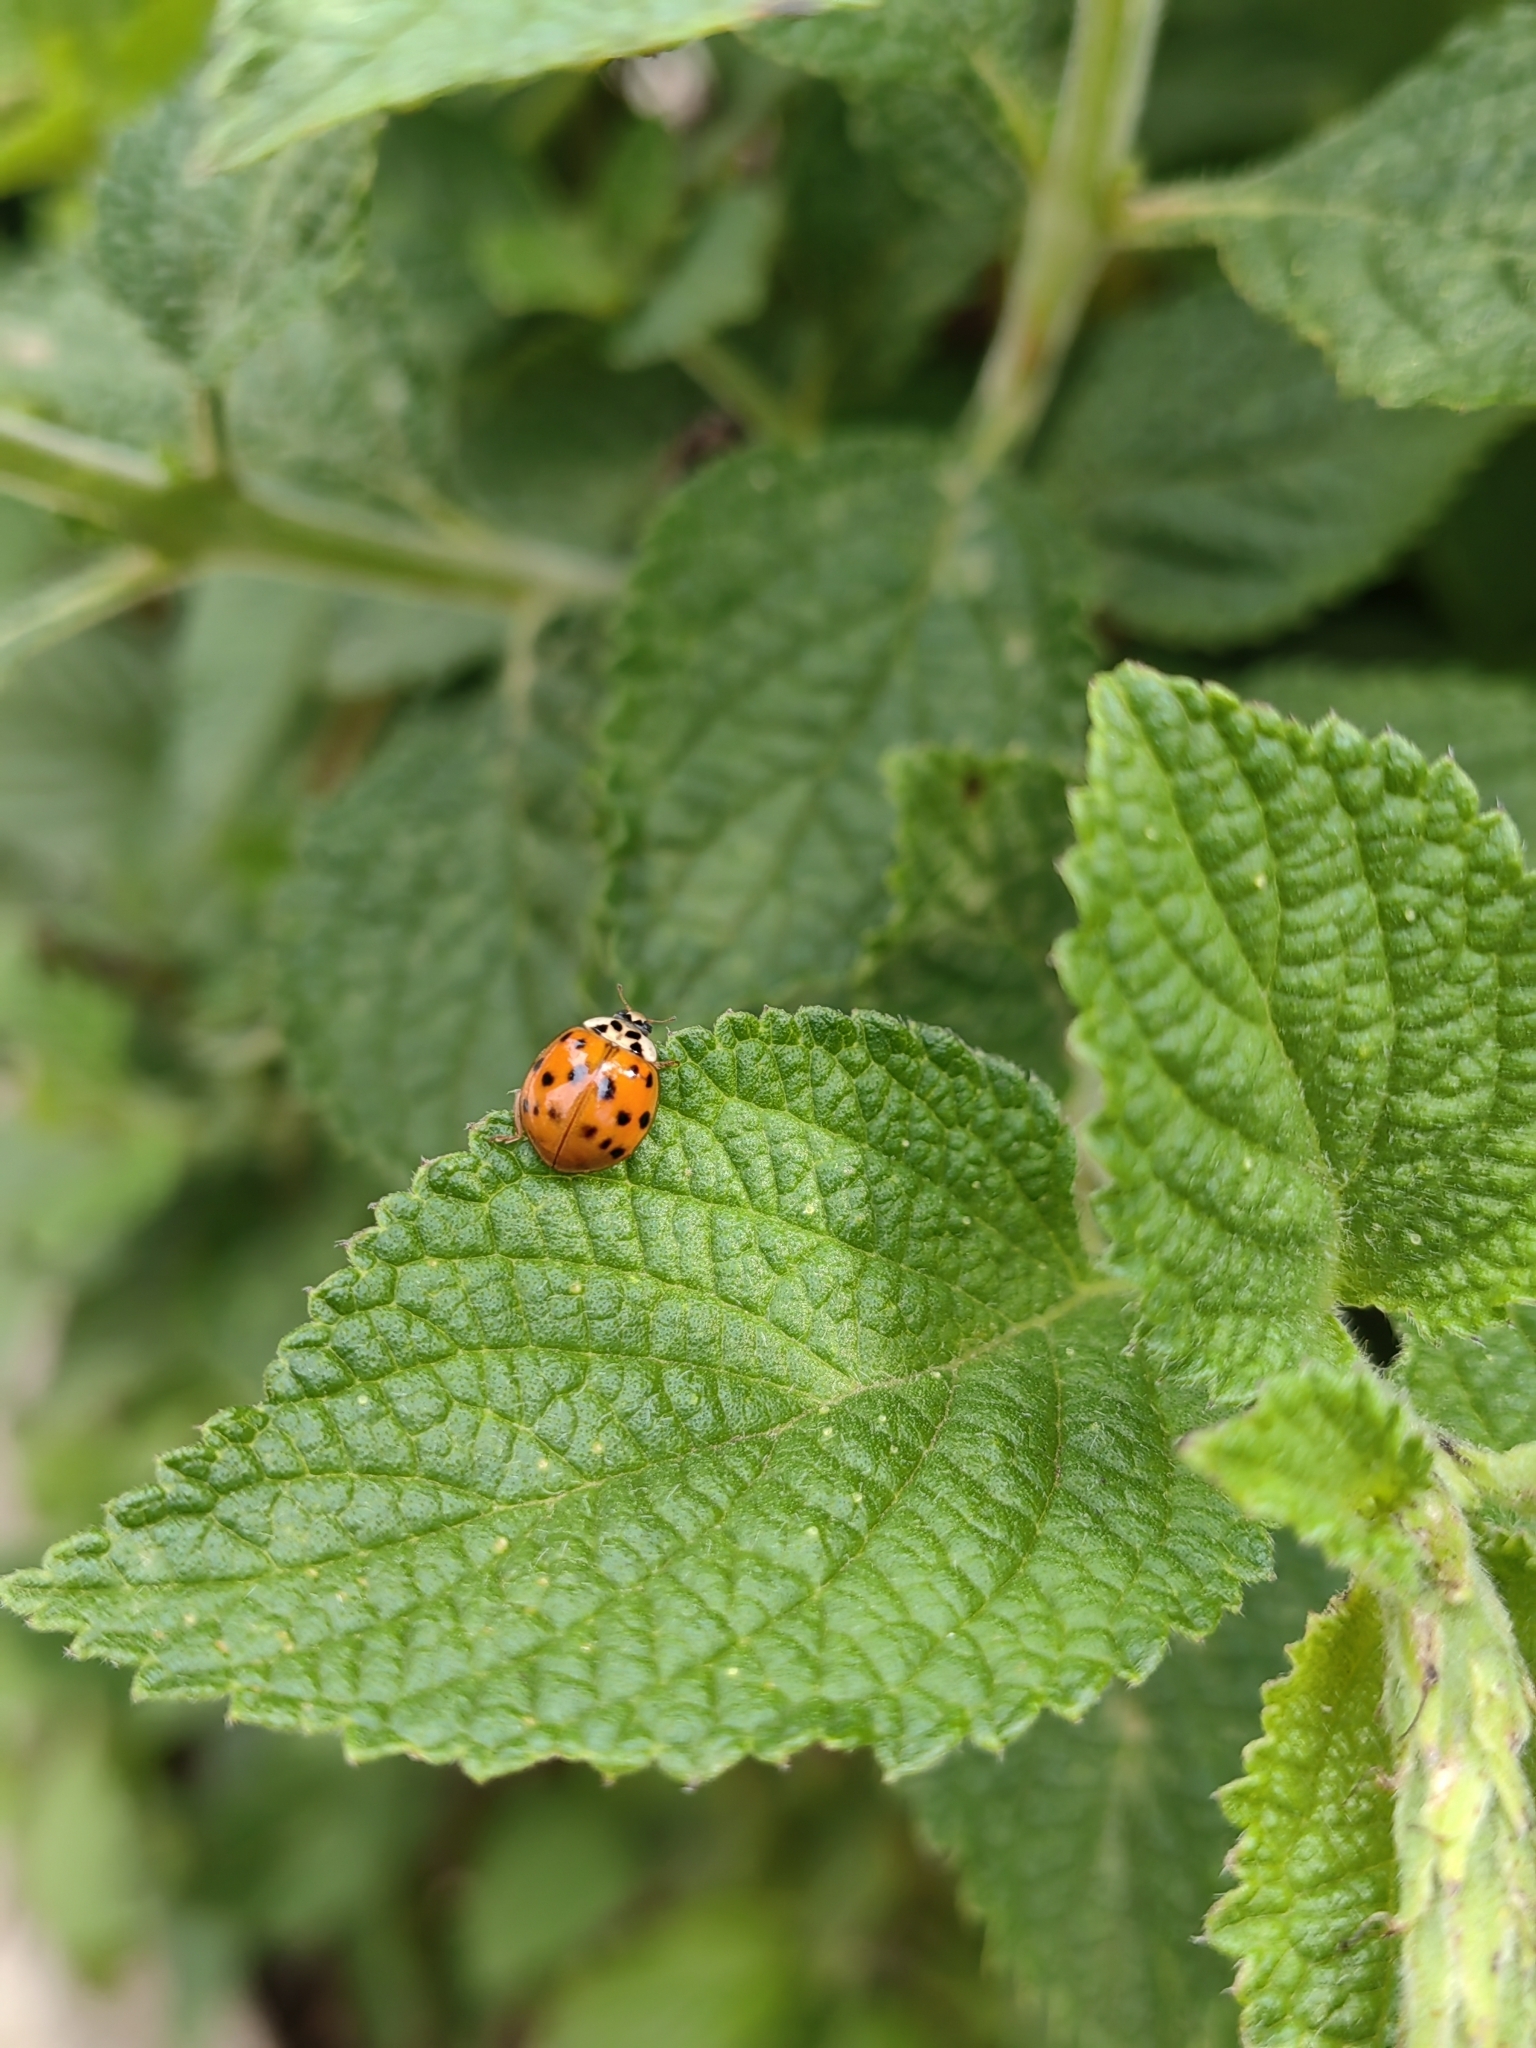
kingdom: Animalia
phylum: Arthropoda
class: Insecta
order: Coleoptera
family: Coccinellidae
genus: Harmonia
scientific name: Harmonia axyridis
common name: Harlequin ladybird
